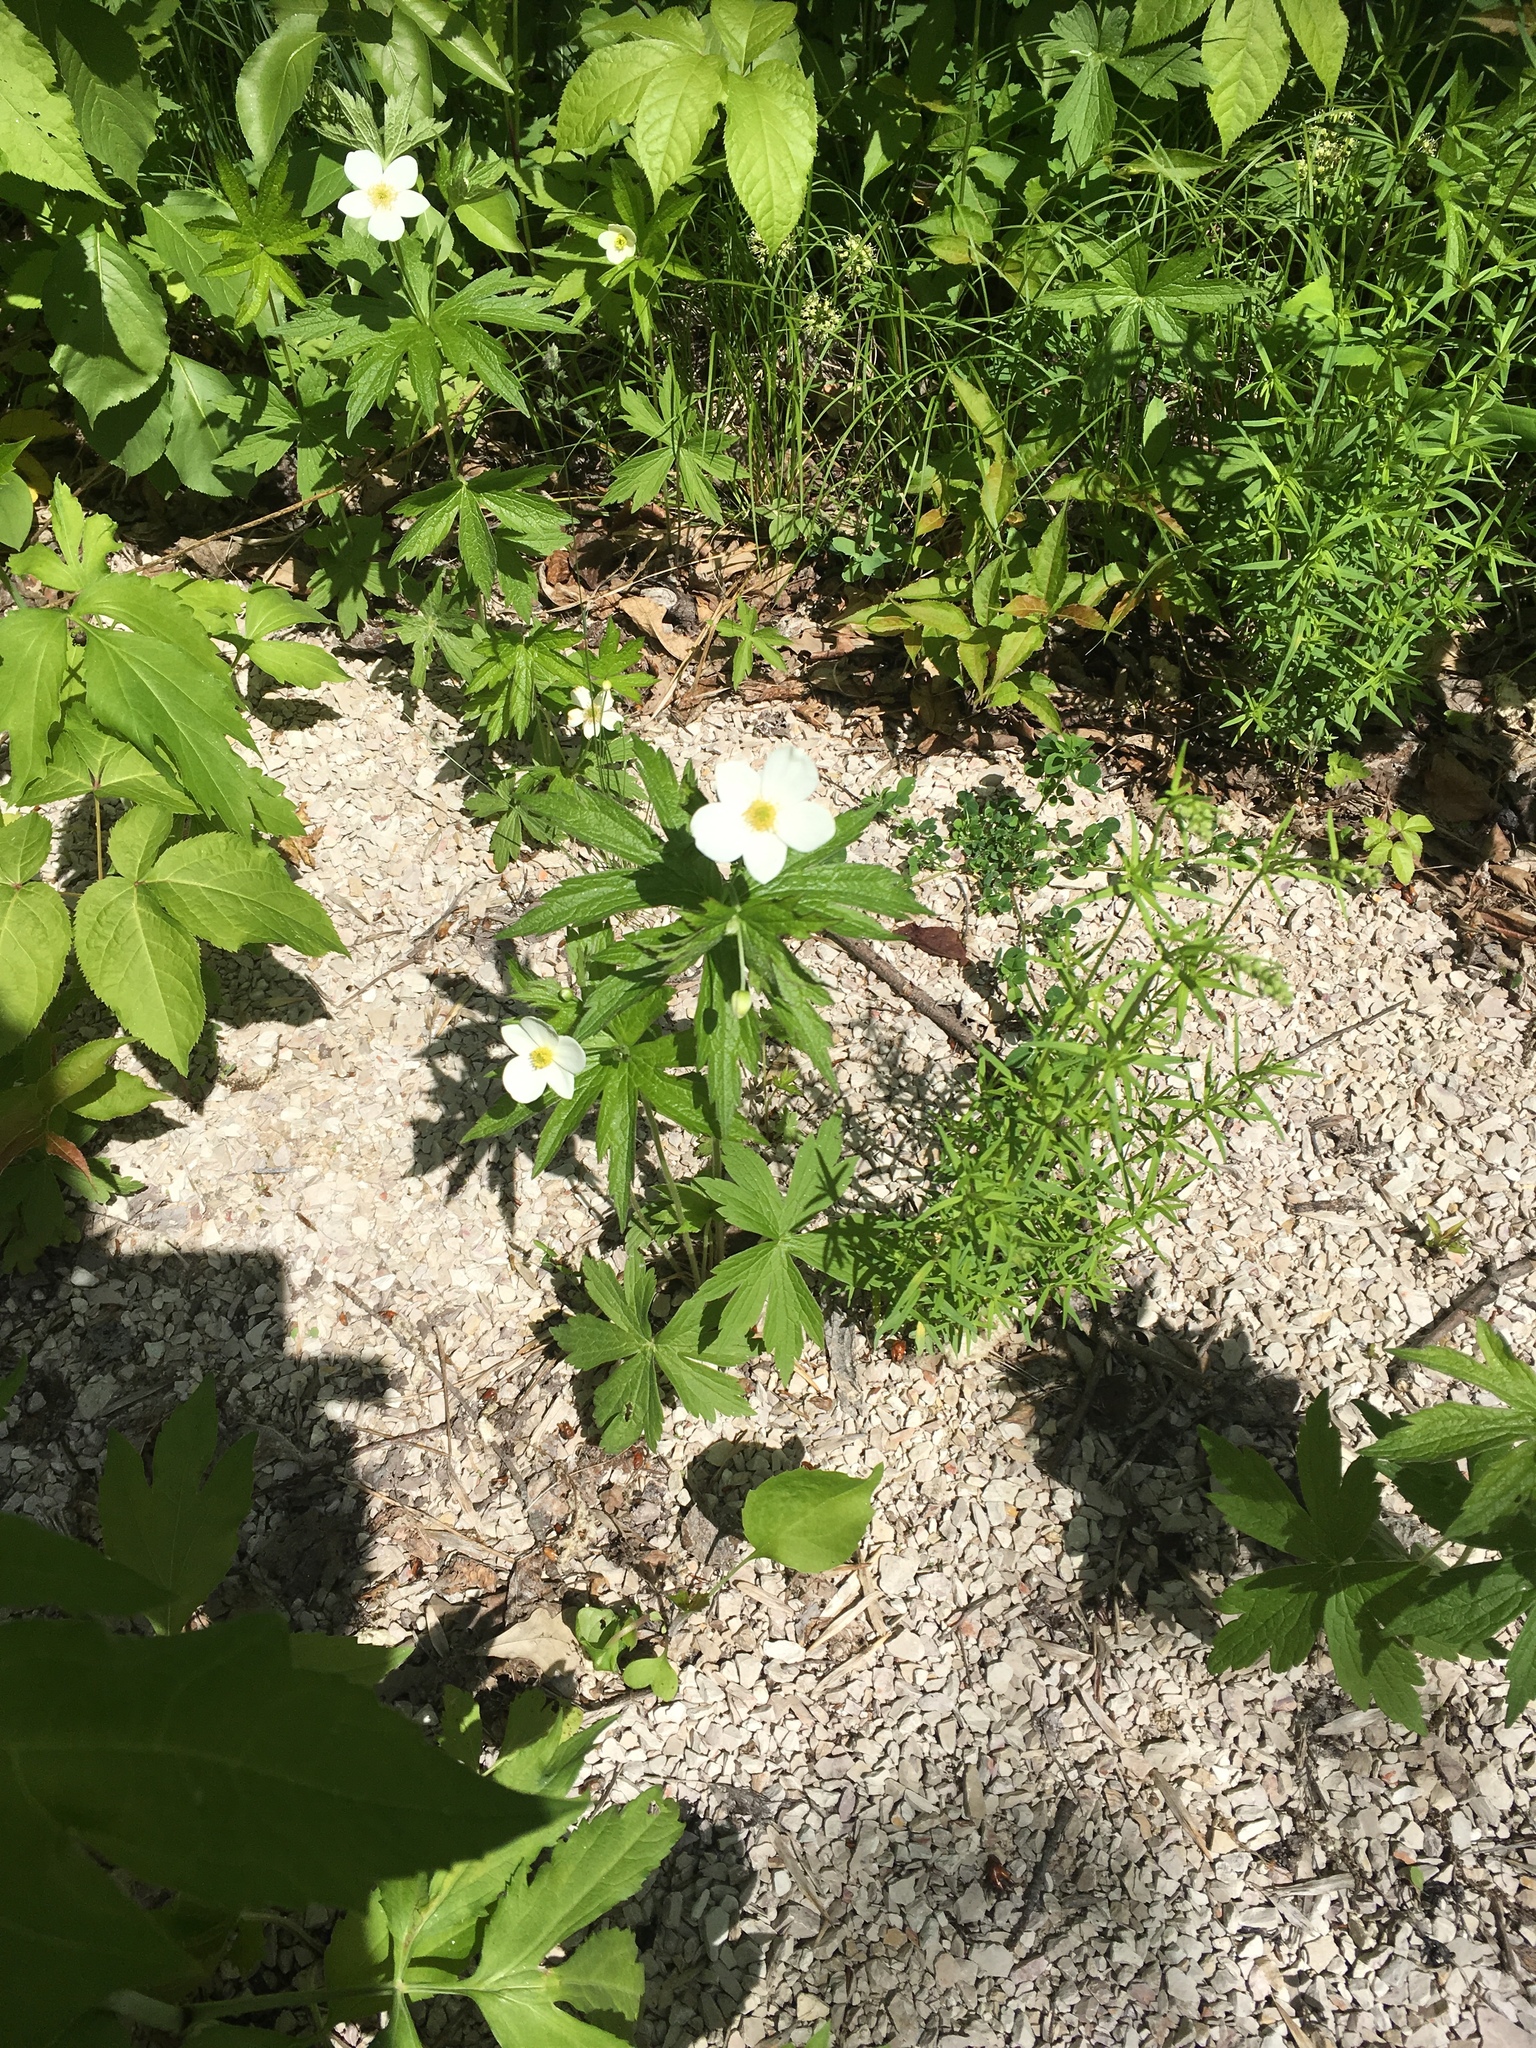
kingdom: Plantae
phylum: Tracheophyta
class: Magnoliopsida
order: Ranunculales
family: Ranunculaceae
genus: Anemonastrum
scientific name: Anemonastrum canadense
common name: Canada anemone
